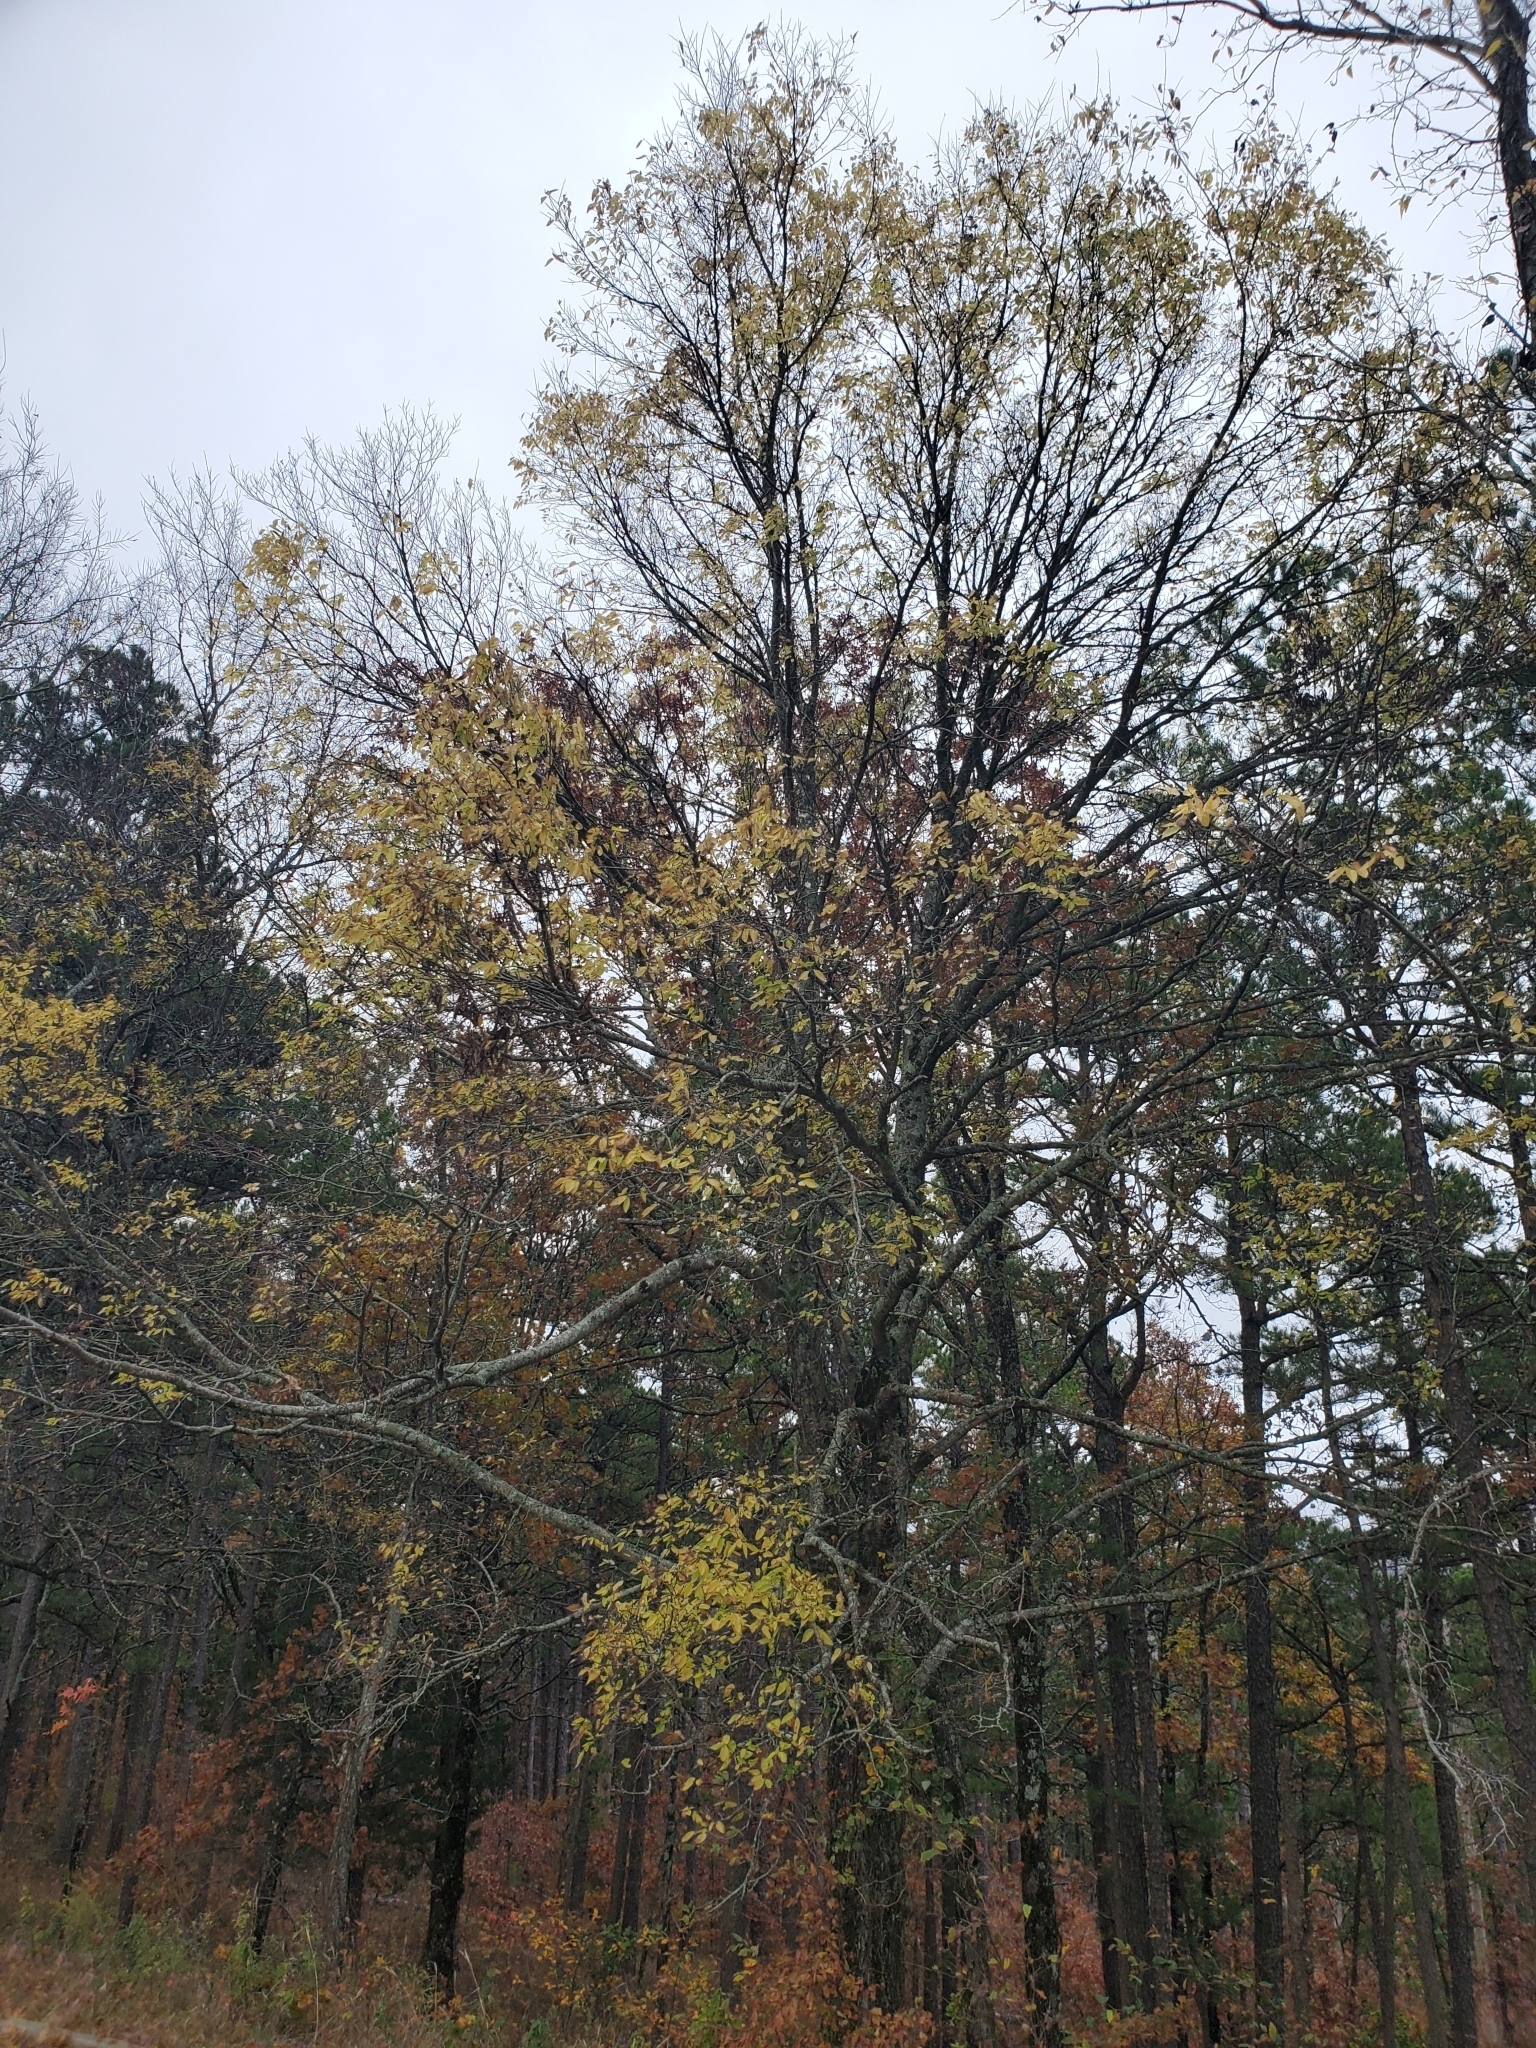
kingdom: Animalia
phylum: Arthropoda
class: Insecta
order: Hemiptera
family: Aphalaridae
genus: Pachypsylla
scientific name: Pachypsylla venusta
